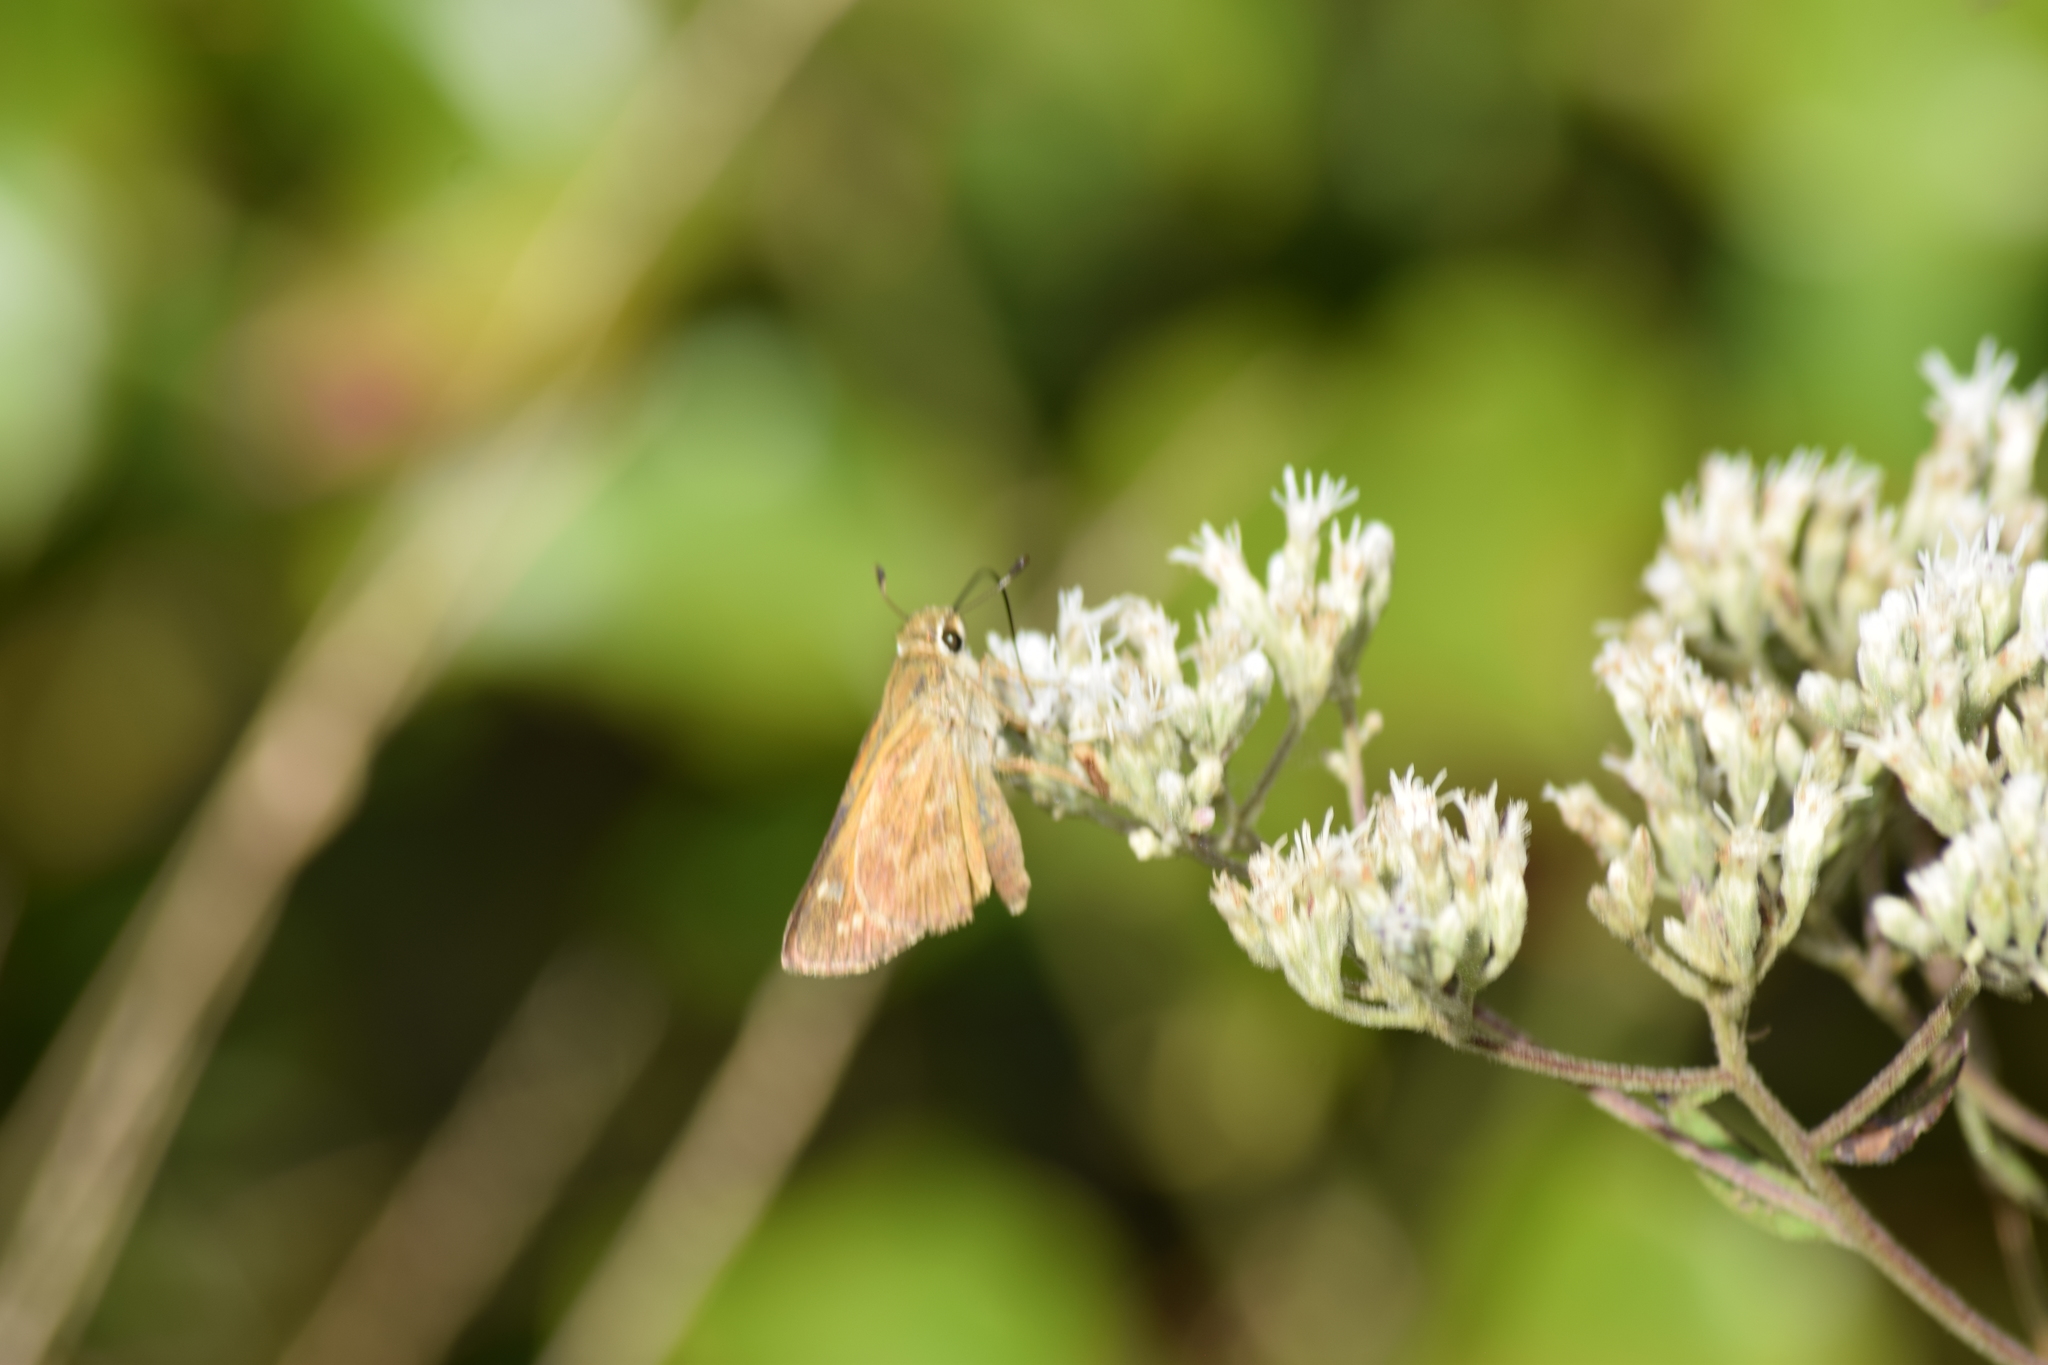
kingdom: Animalia
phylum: Arthropoda
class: Insecta
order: Lepidoptera
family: Hesperiidae
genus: Atalopedes
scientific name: Atalopedes
